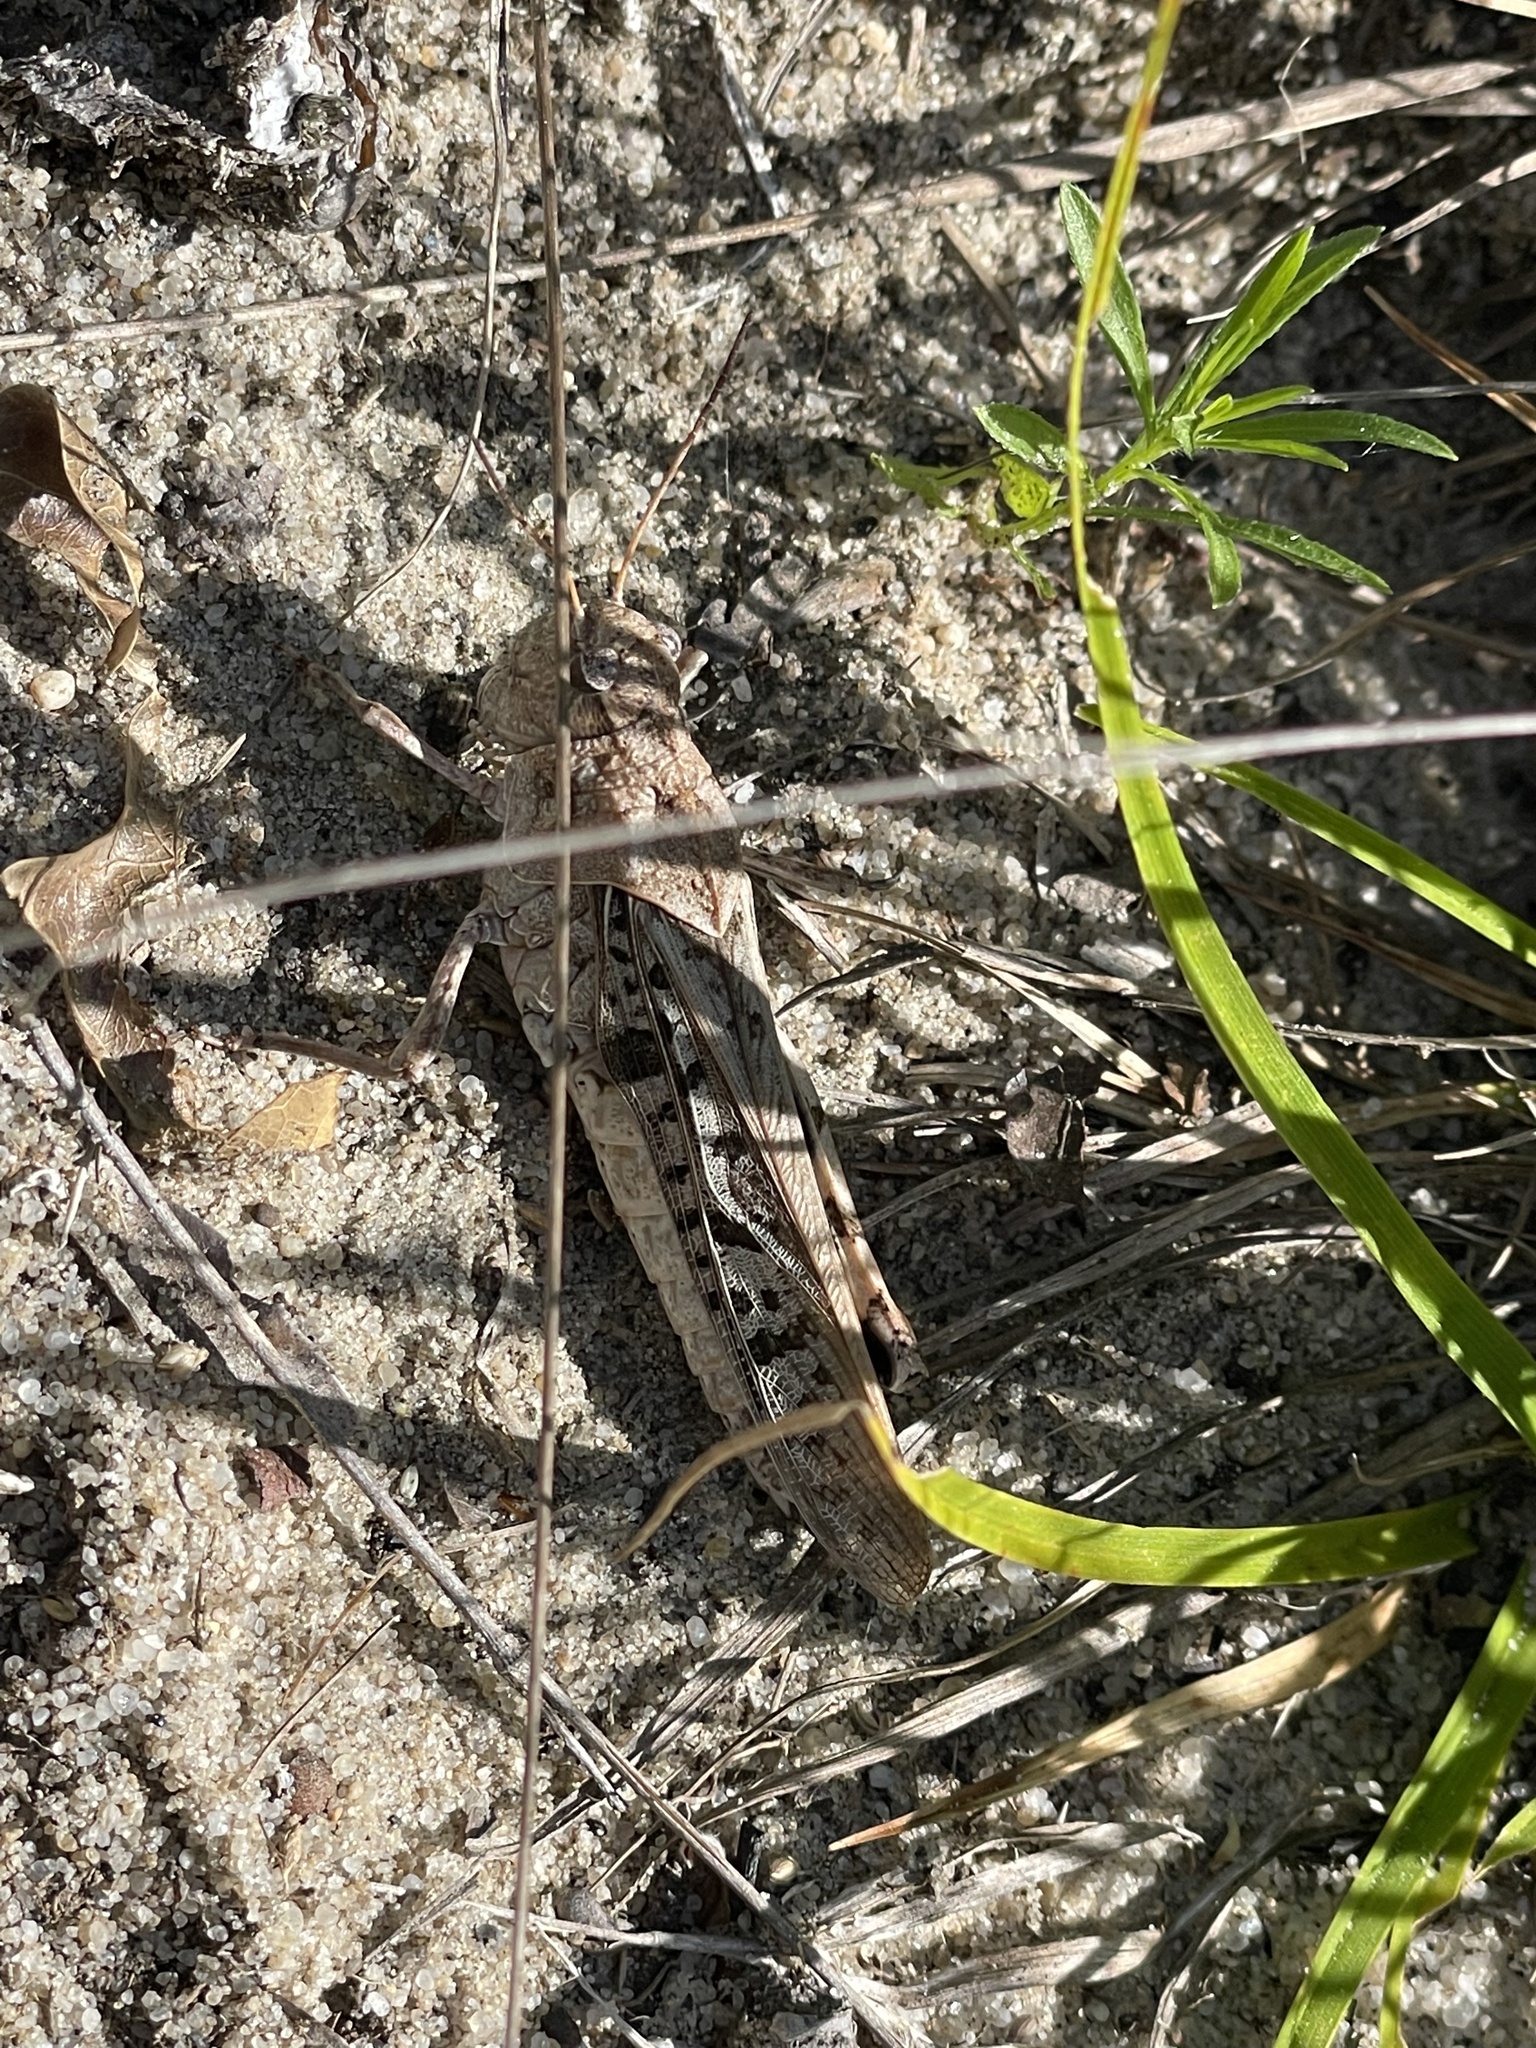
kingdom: Animalia
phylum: Arthropoda
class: Insecta
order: Orthoptera
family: Acrididae
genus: Pardalophora
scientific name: Pardalophora phoenicoptera
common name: Orange-winged grasshopper
